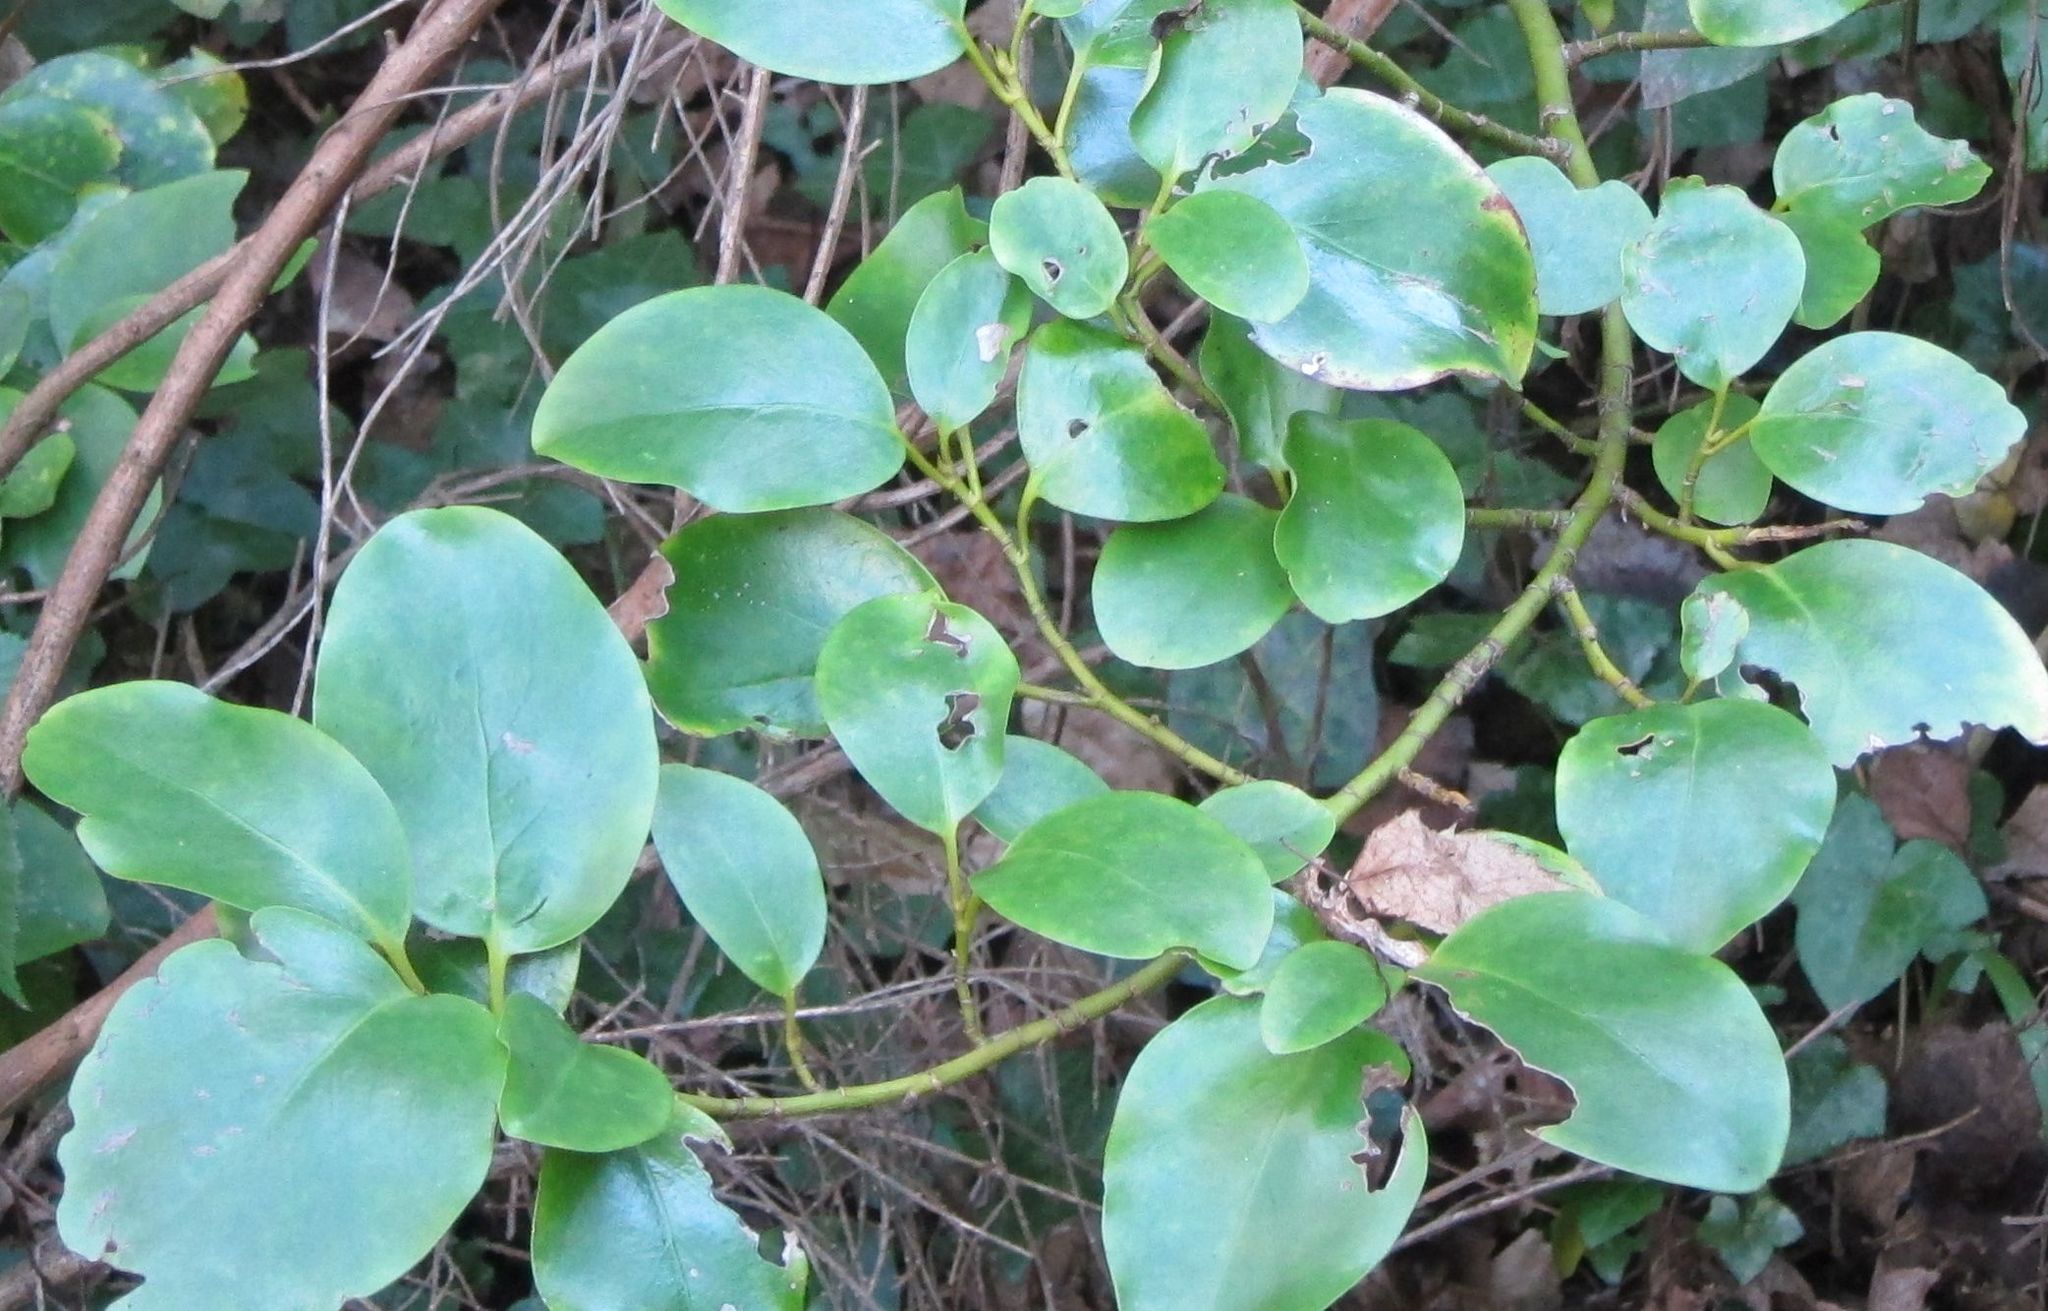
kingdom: Plantae
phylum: Tracheophyta
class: Magnoliopsida
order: Apiales
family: Griseliniaceae
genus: Griselinia
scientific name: Griselinia littoralis
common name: New zealand broadleaf
